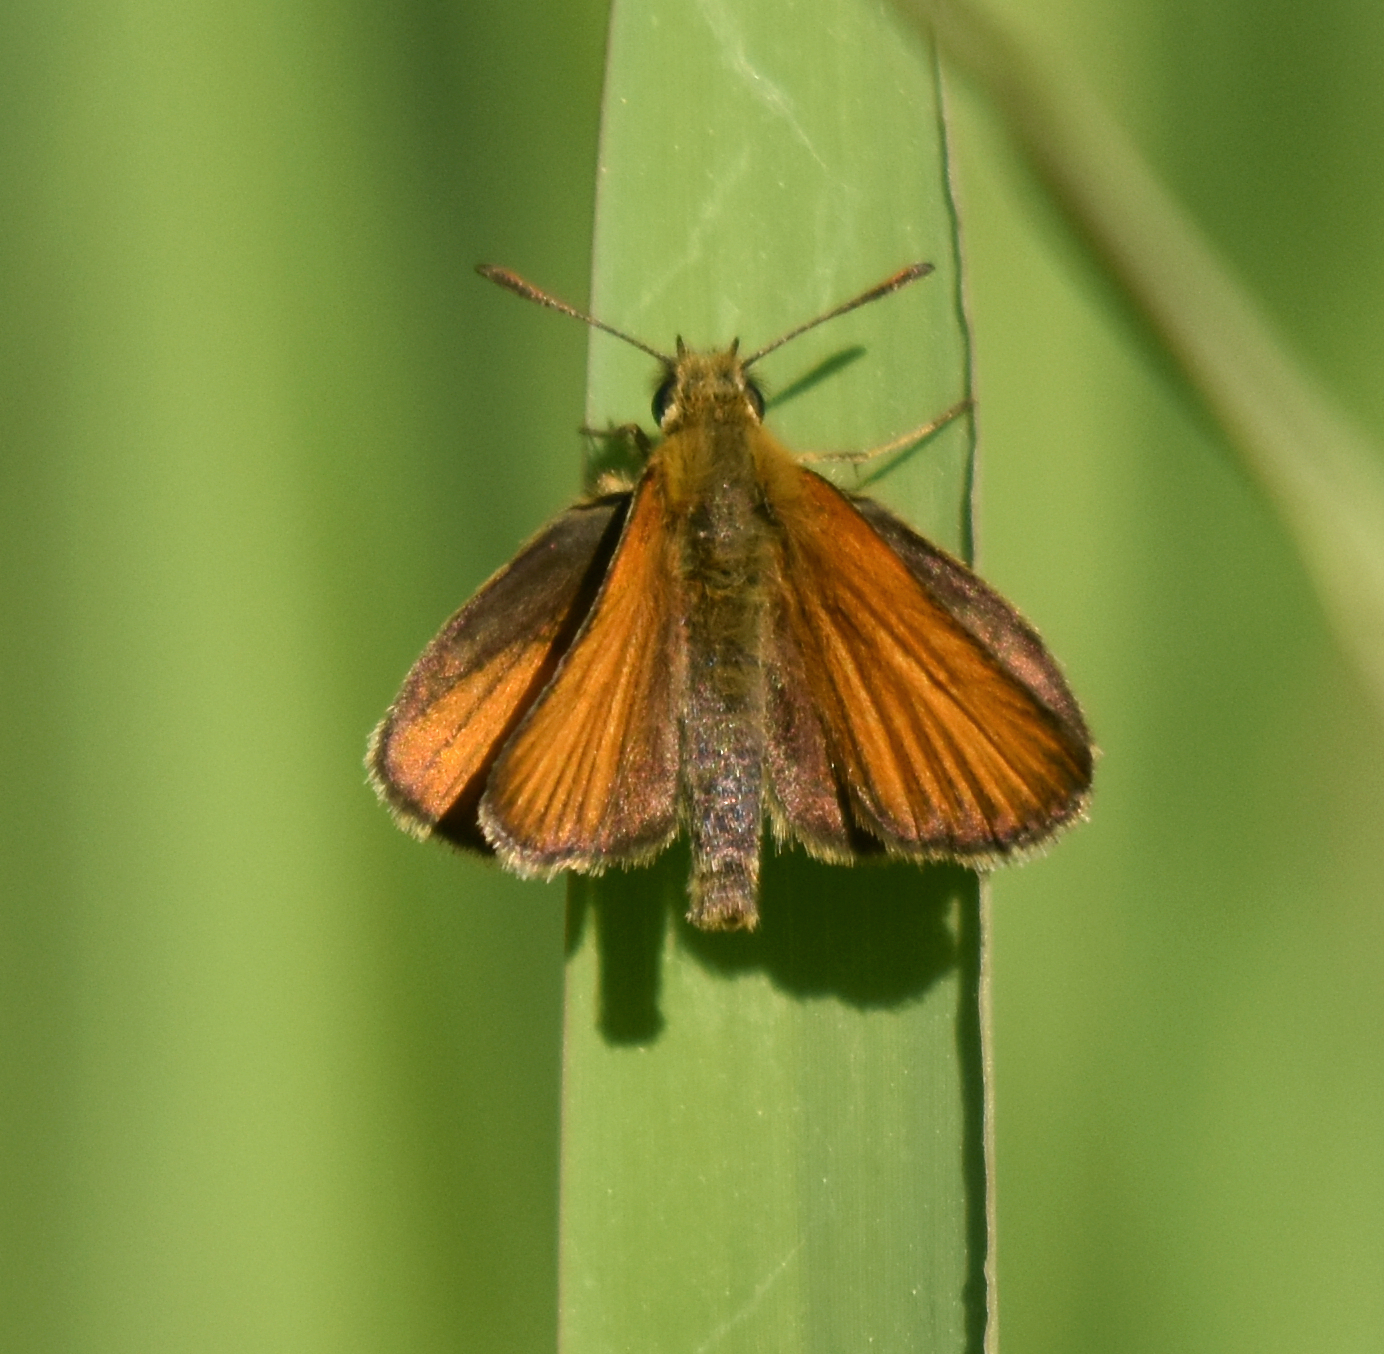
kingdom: Animalia
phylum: Arthropoda
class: Insecta
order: Lepidoptera
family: Hesperiidae
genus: Thymelicus
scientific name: Thymelicus lineola
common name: Essex skipper
